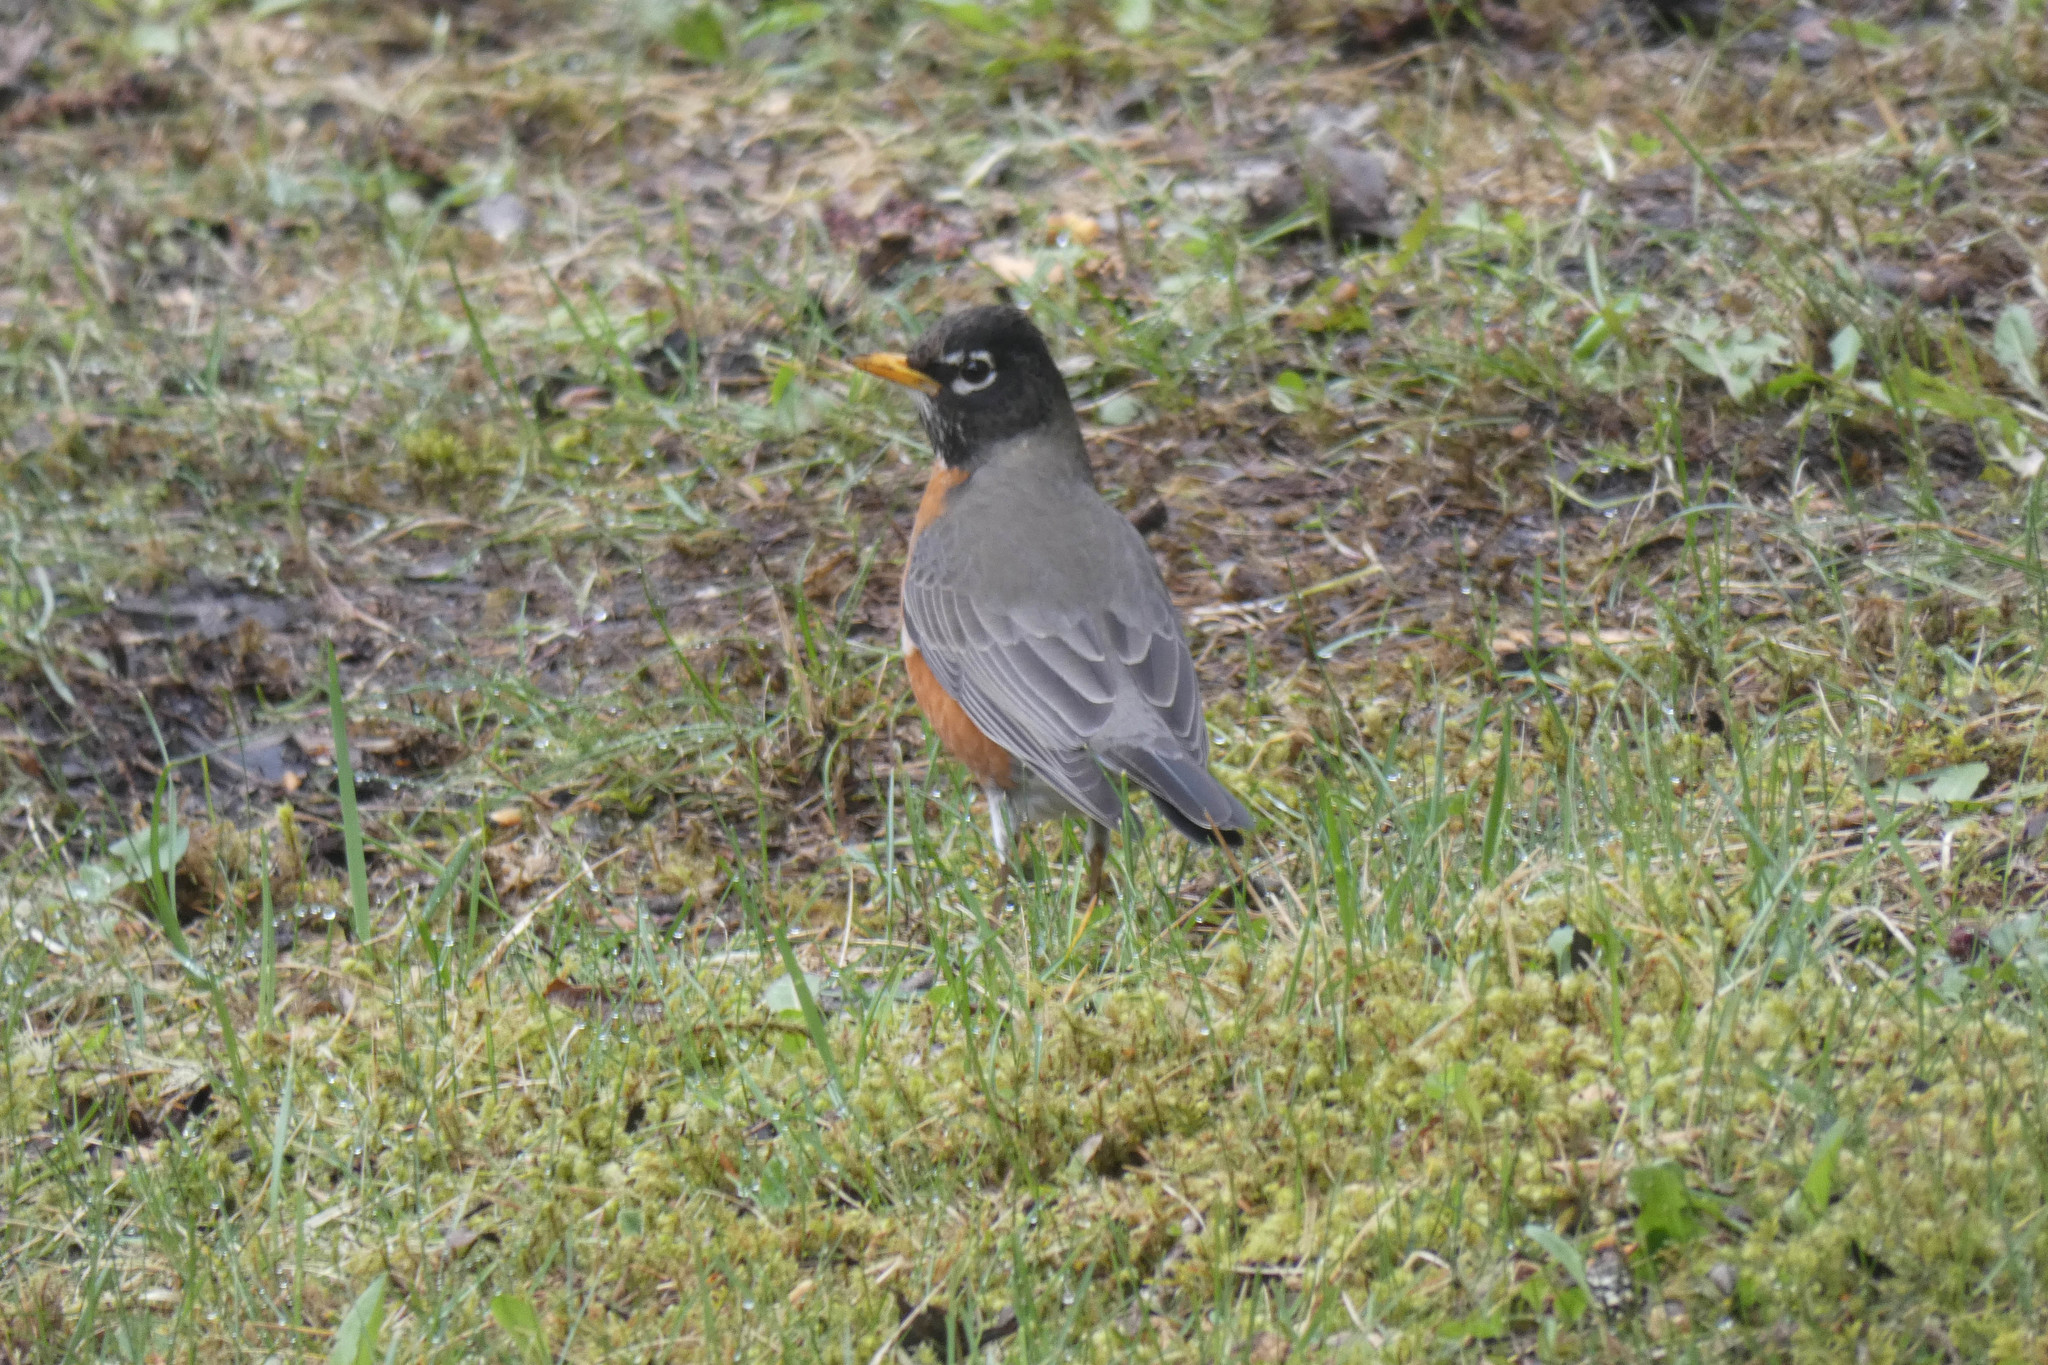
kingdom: Animalia
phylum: Chordata
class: Aves
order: Passeriformes
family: Turdidae
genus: Turdus
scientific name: Turdus migratorius
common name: American robin
